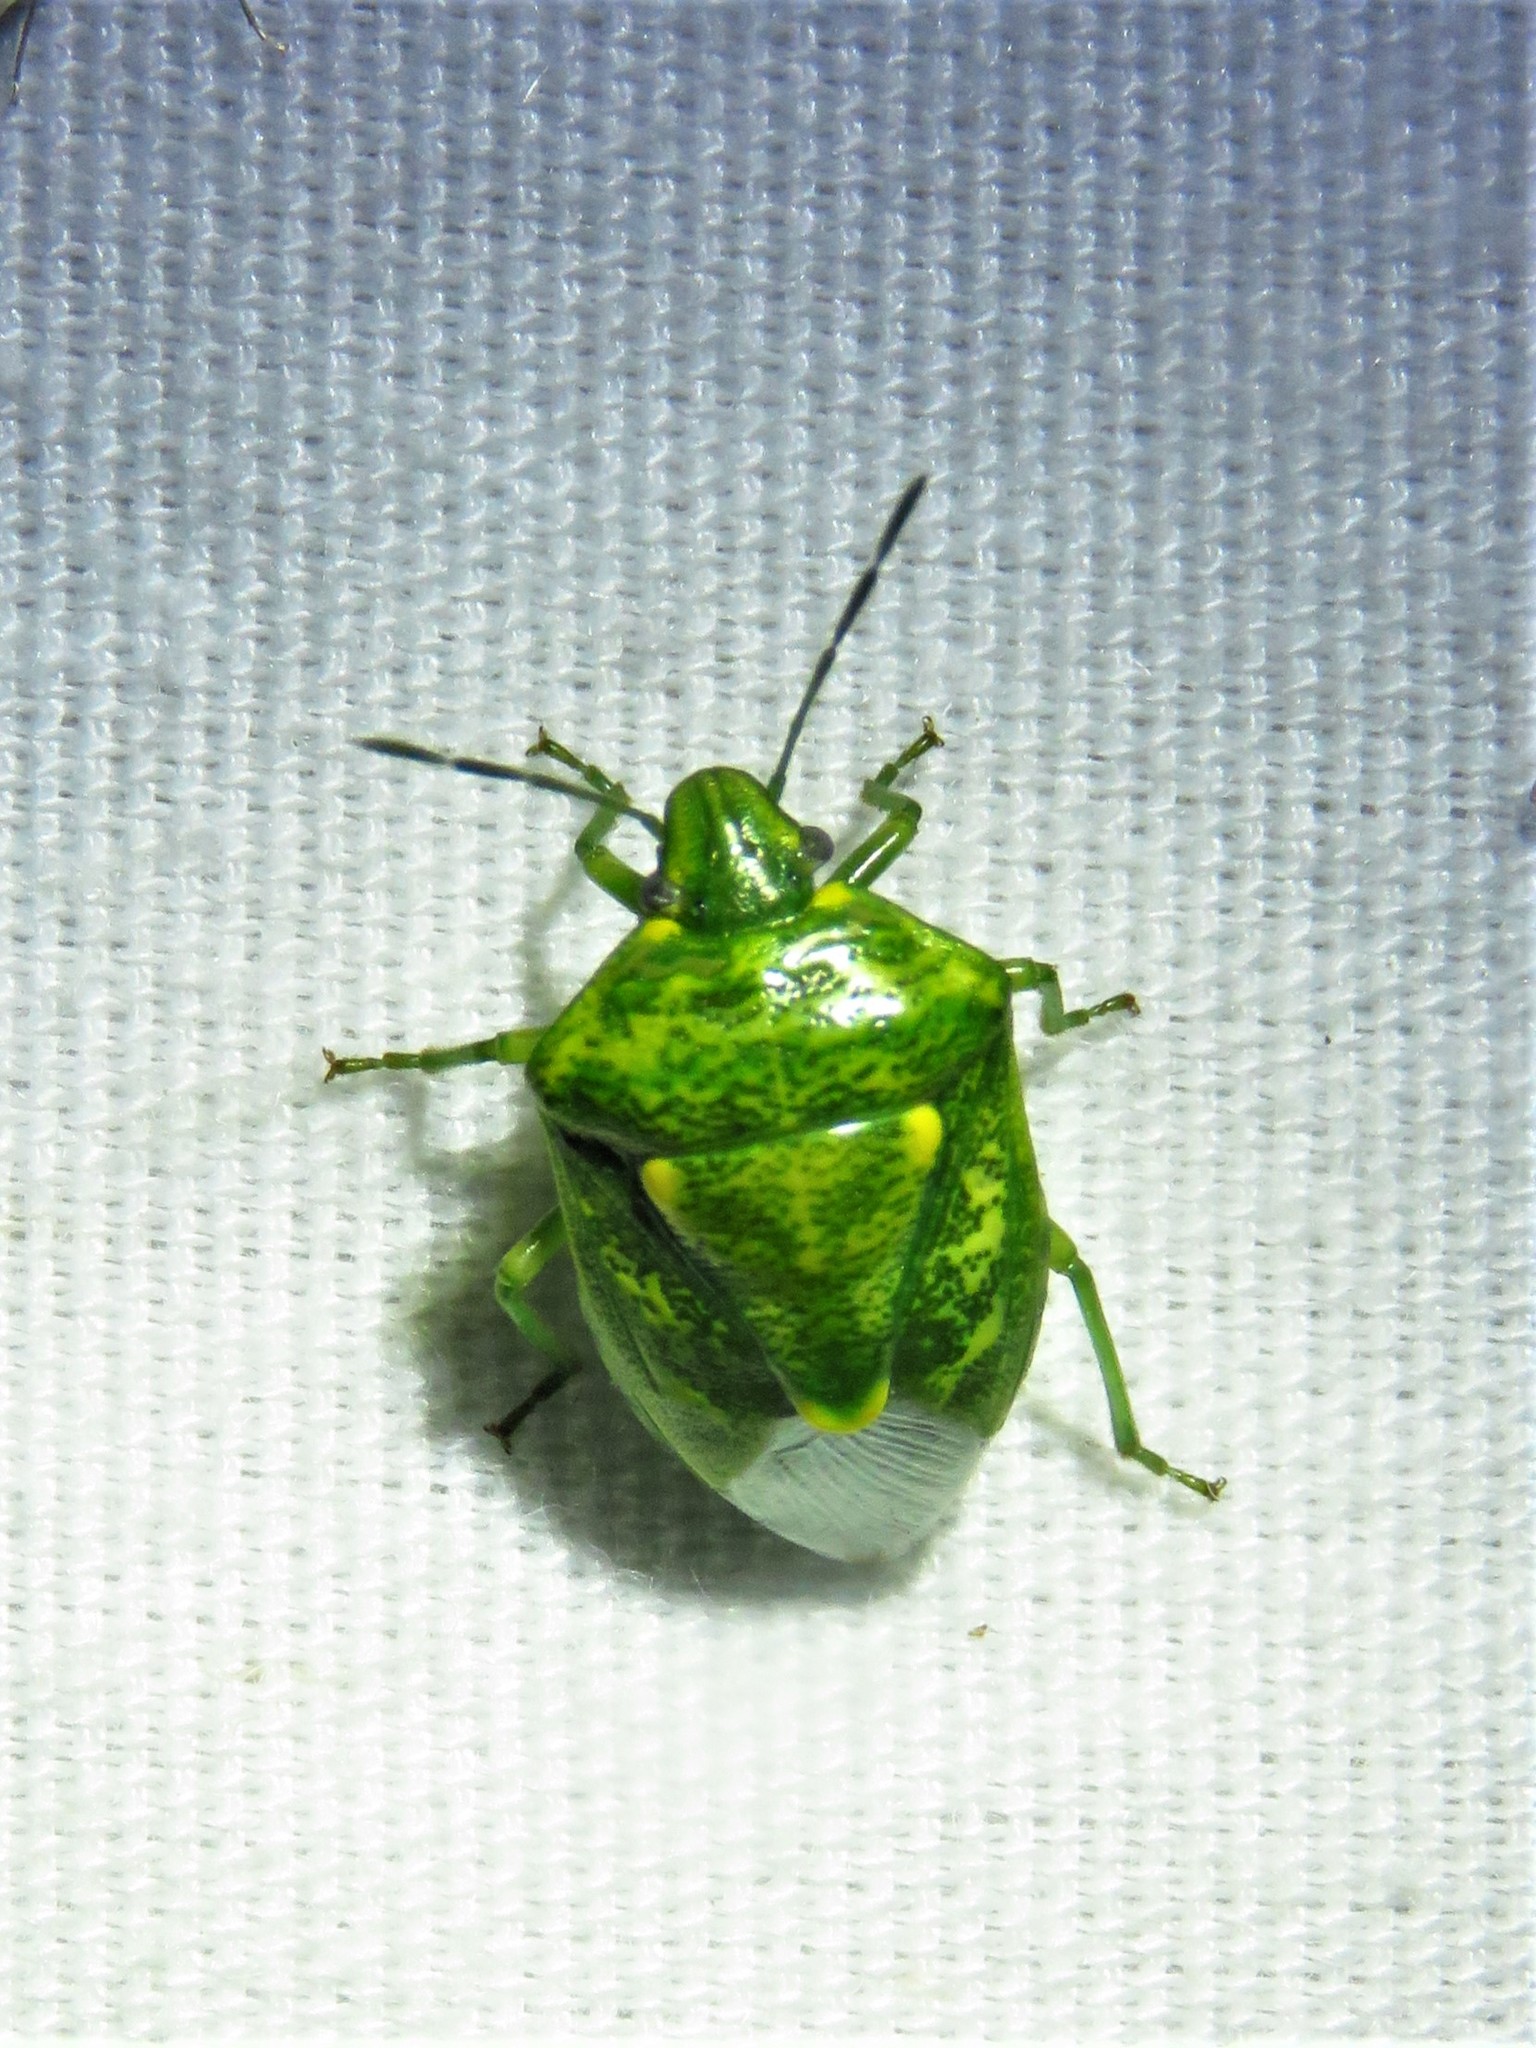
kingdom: Animalia
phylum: Arthropoda
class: Insecta
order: Hemiptera
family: Pentatomidae
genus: Banasa
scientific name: Banasa euchlora
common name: Cedar berry bug
